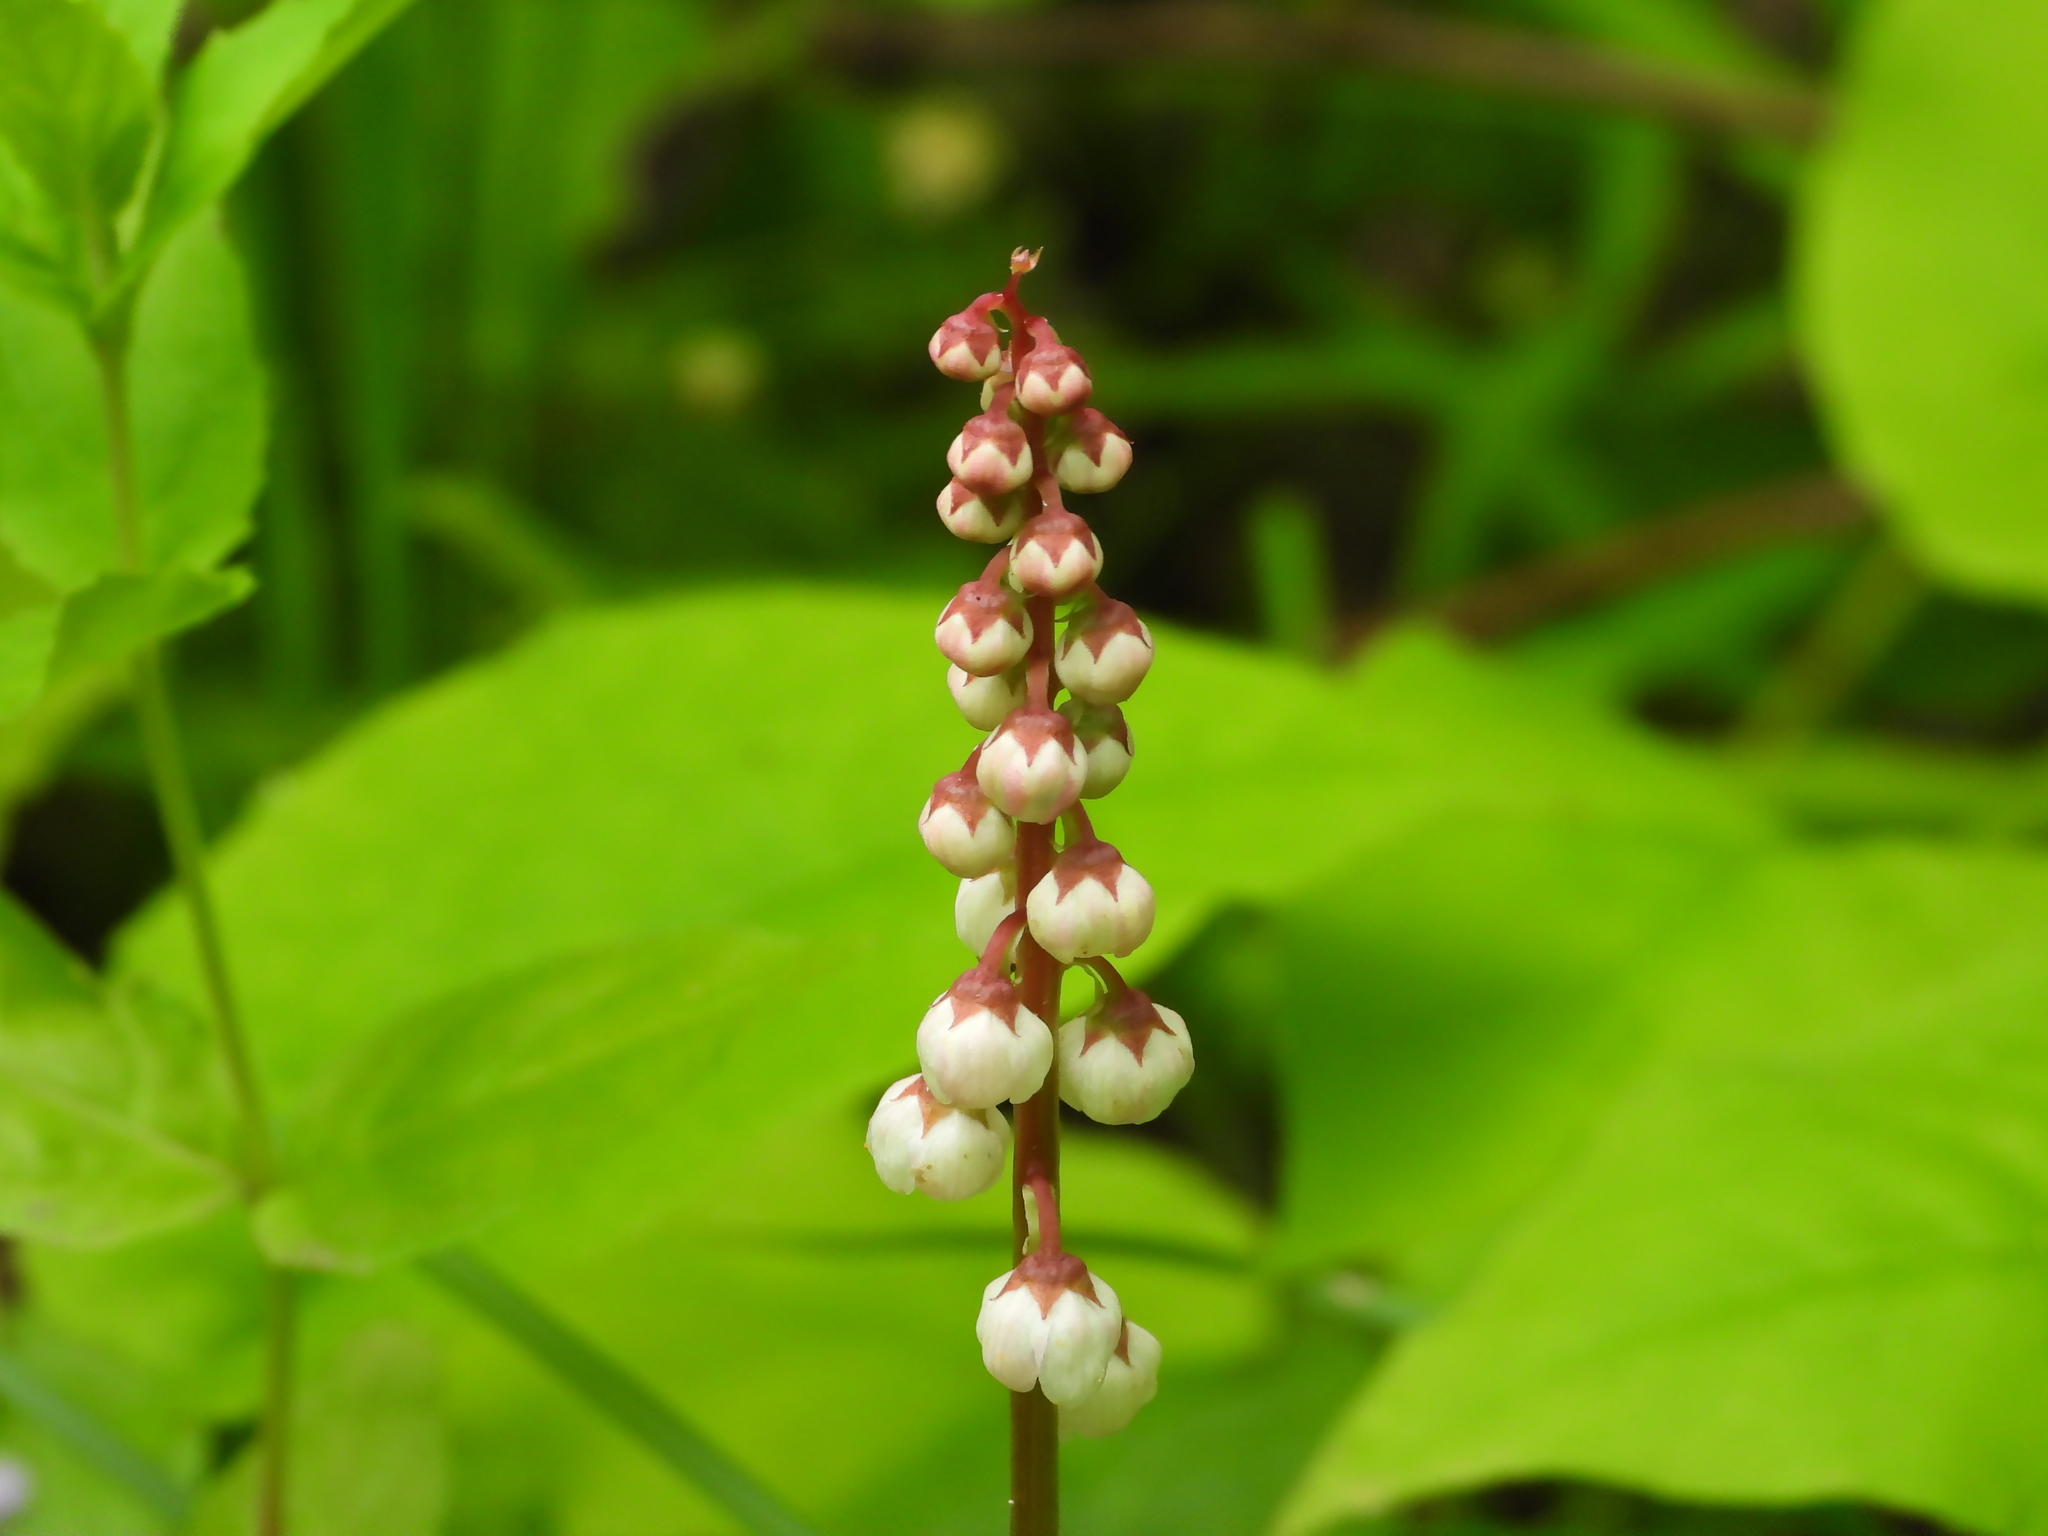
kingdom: Plantae
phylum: Tracheophyta
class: Magnoliopsida
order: Ericales
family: Ericaceae
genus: Pyrola
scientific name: Pyrola minor
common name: Common wintergreen
